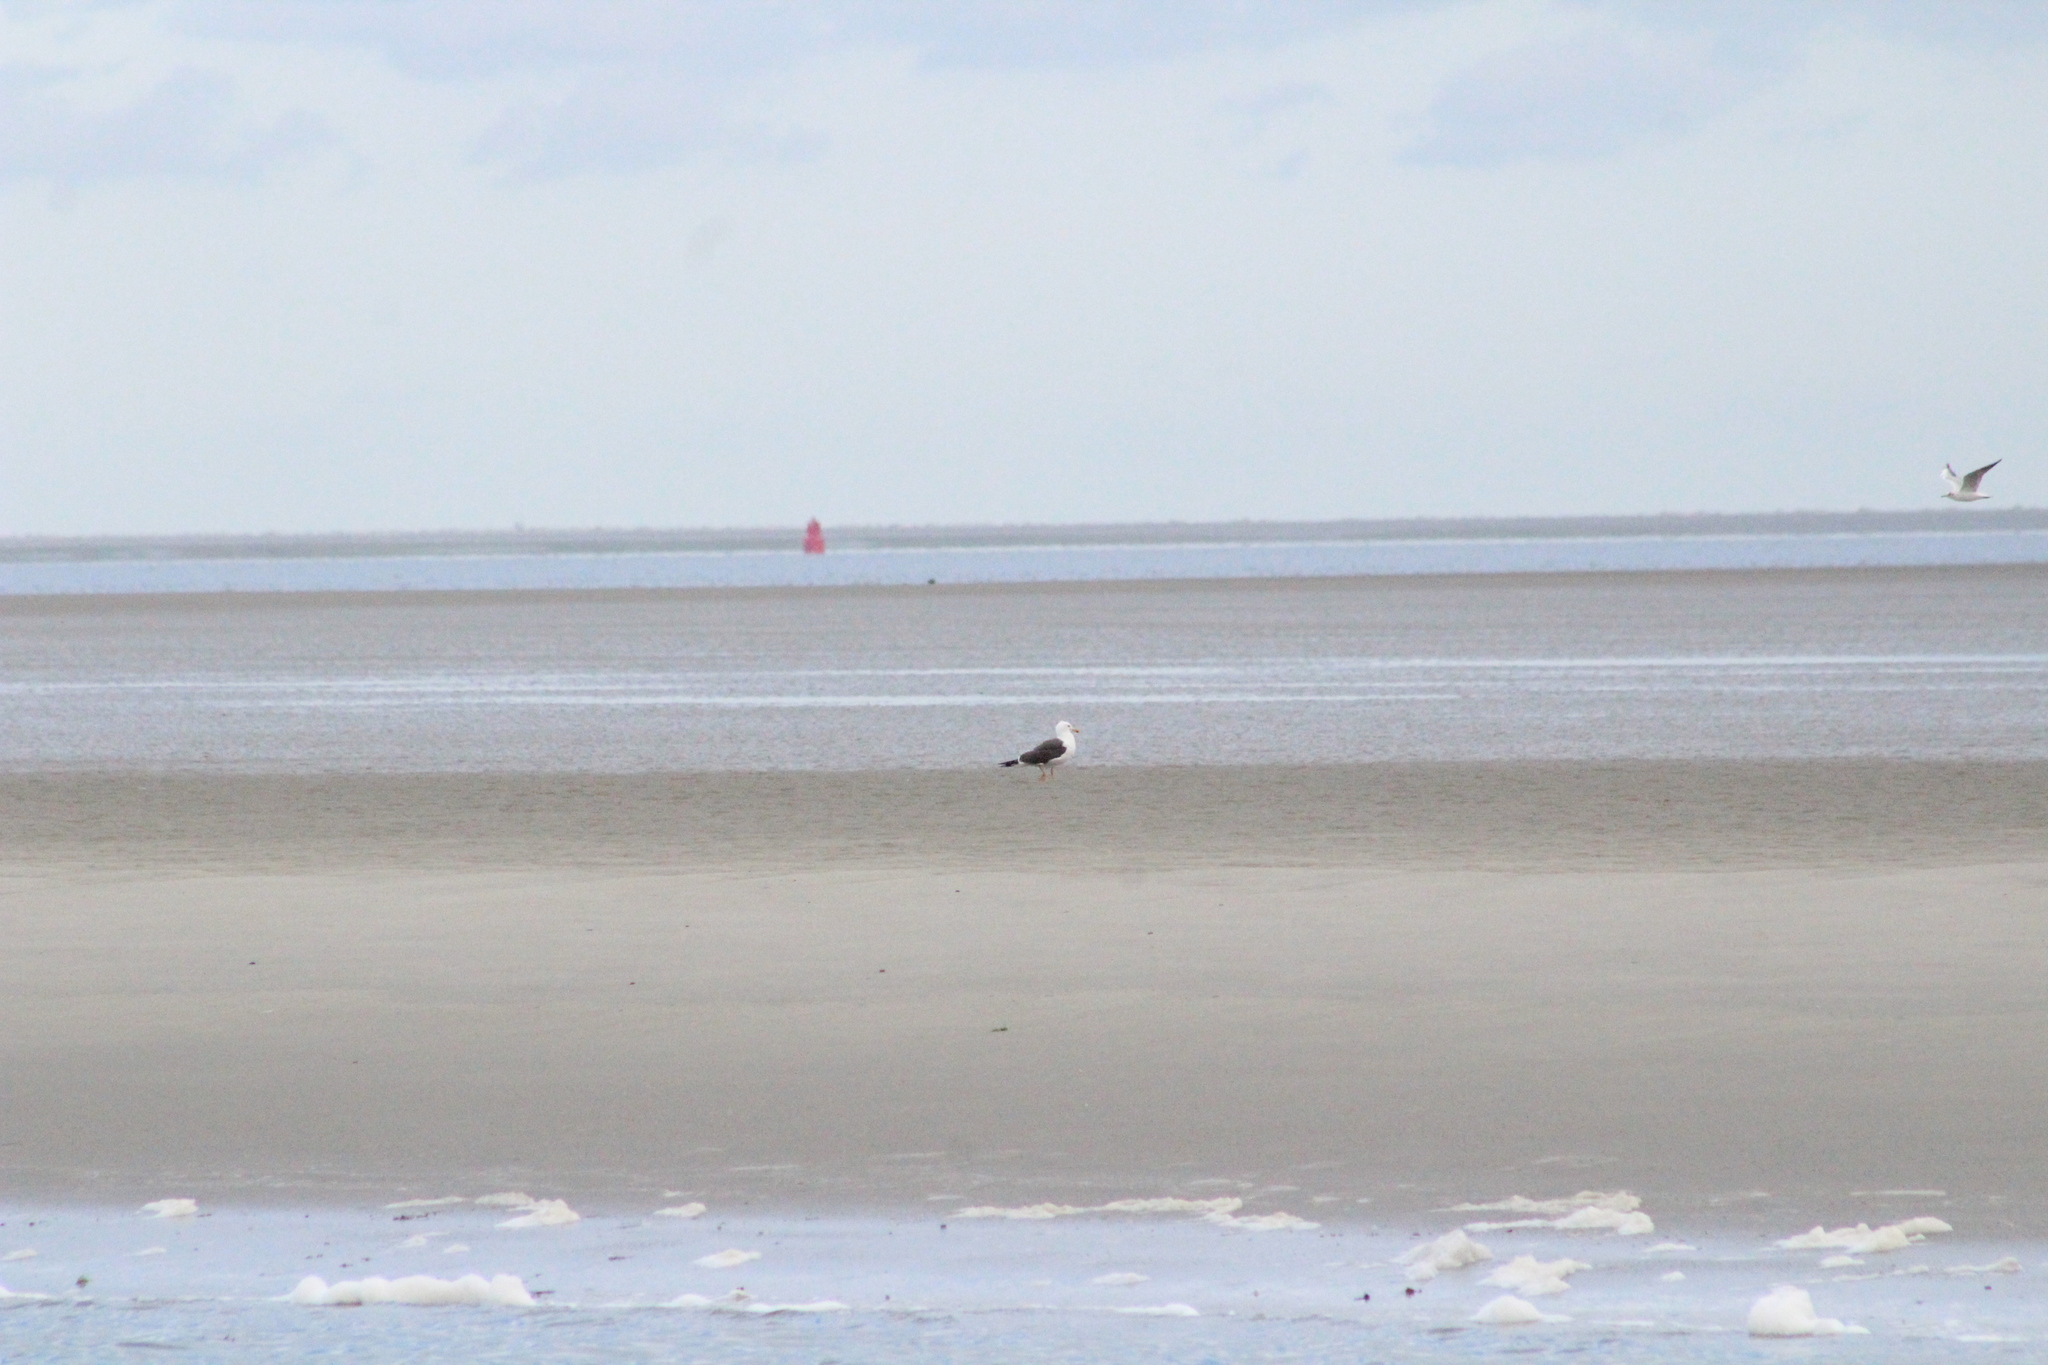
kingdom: Animalia
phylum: Chordata
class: Aves
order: Charadriiformes
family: Laridae
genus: Larus
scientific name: Larus marinus
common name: Great black-backed gull
